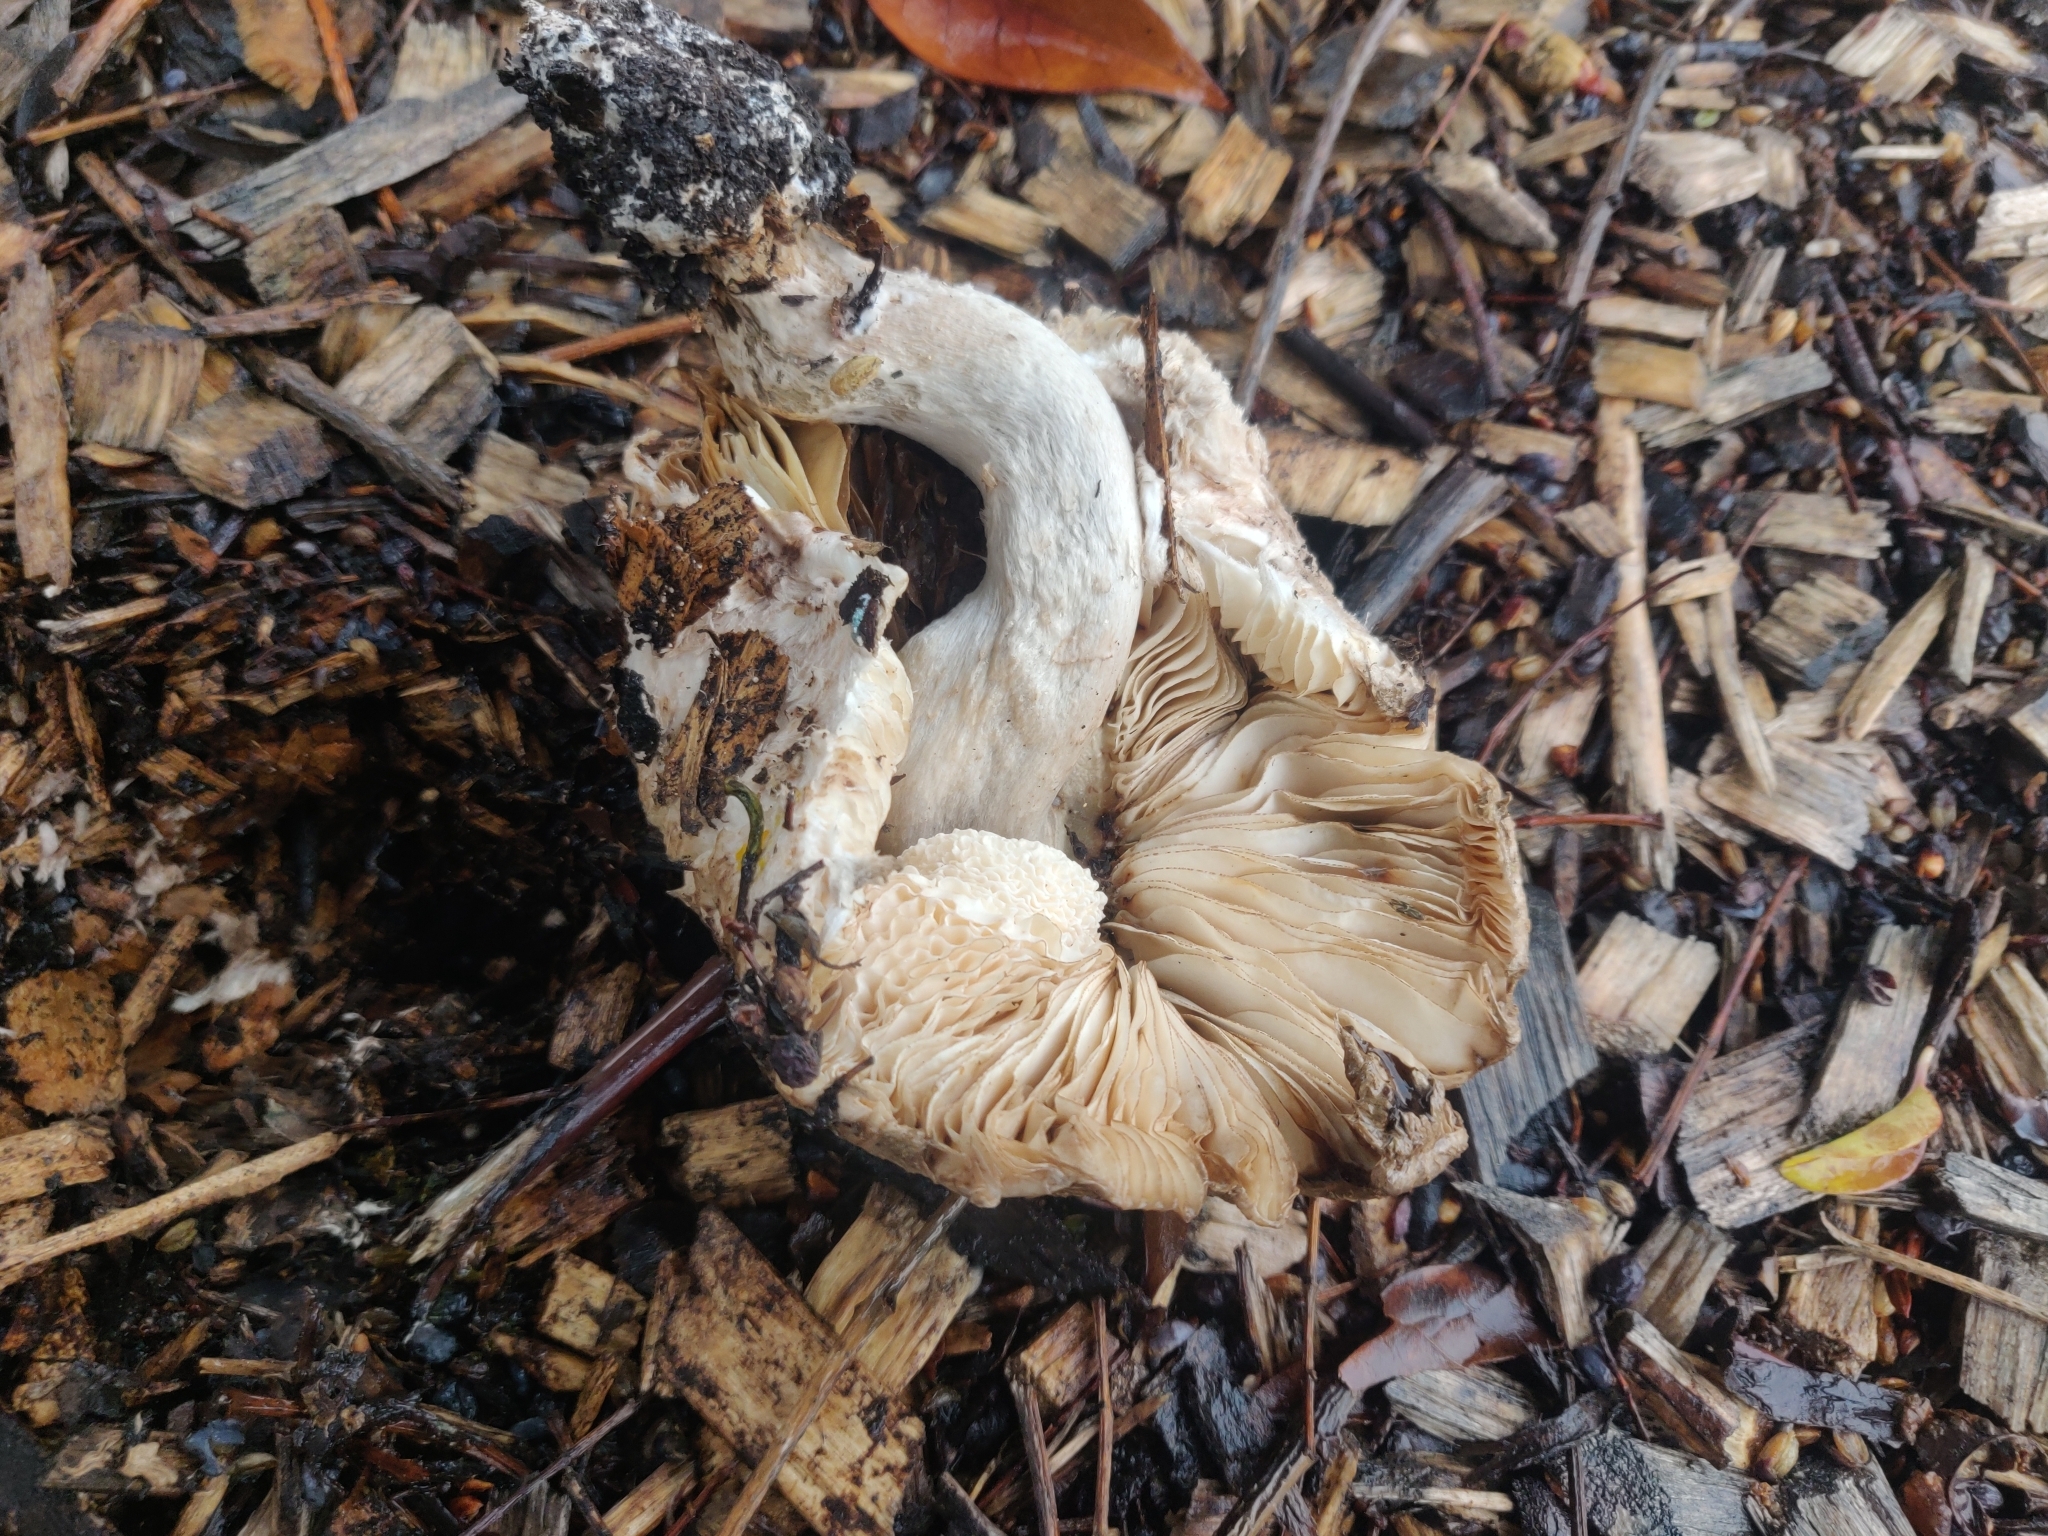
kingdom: Fungi
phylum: Basidiomycota
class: Agaricomycetes
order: Agaricales
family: Agaricaceae
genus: Chlorophyllum
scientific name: Chlorophyllum brunneum
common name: Brown parasol
